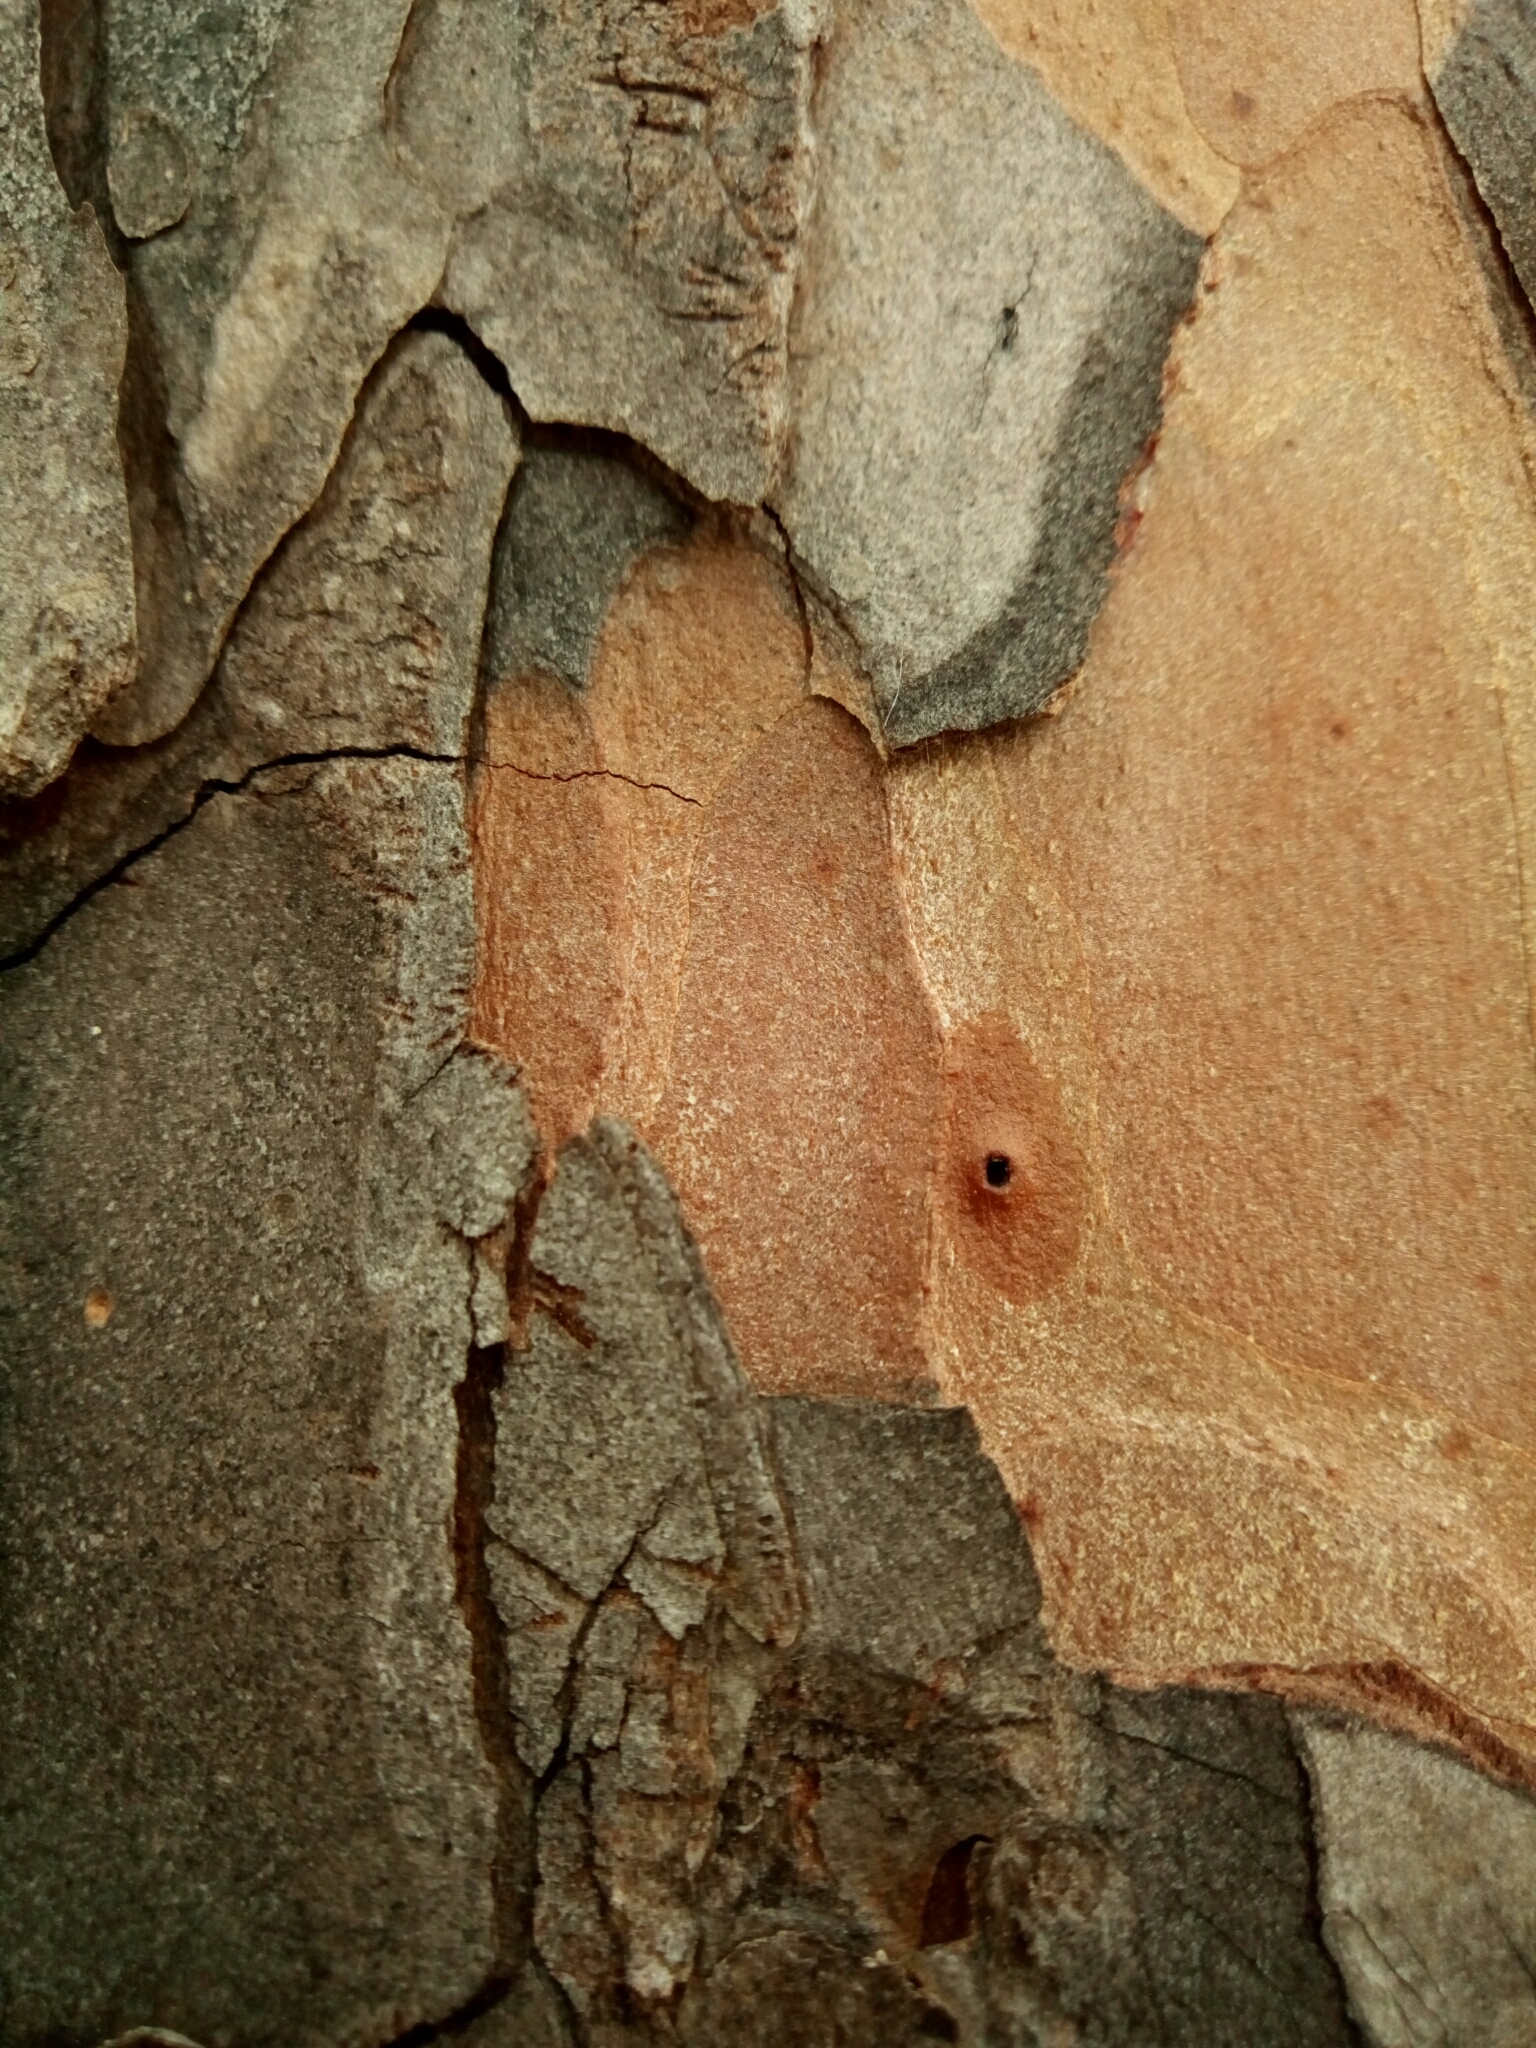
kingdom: Plantae
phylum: Tracheophyta
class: Pinopsida
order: Pinales
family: Pinaceae
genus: Pinus
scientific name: Pinus echinata
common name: Shortleaf pine
